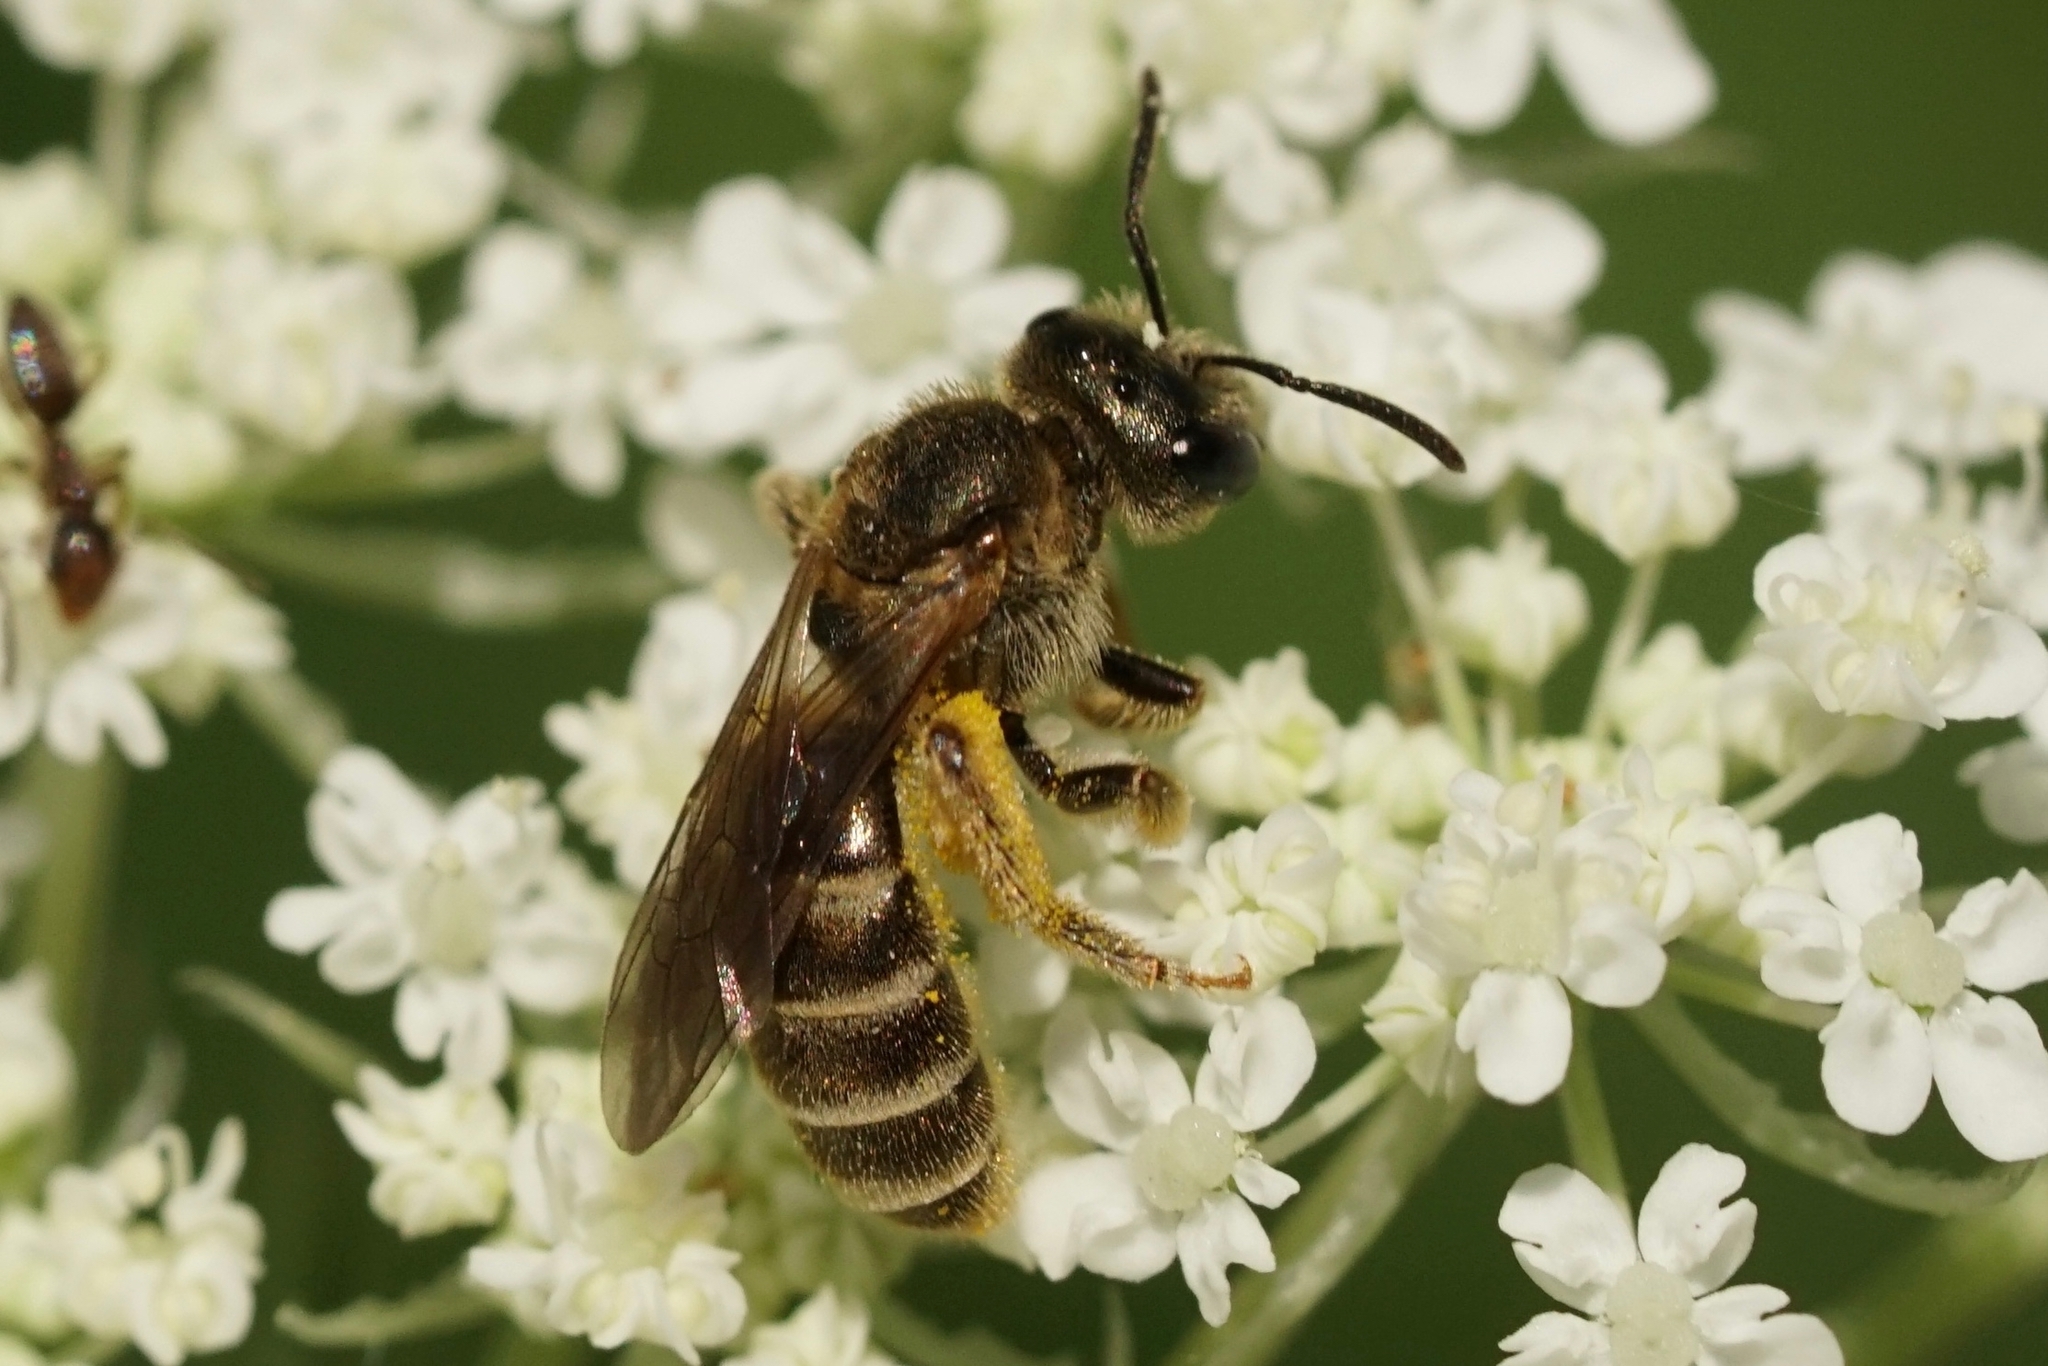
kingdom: Animalia
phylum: Arthropoda
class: Insecta
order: Hymenoptera
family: Halictidae
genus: Halictus
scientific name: Halictus confusus
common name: Southern bronze furrow bee
